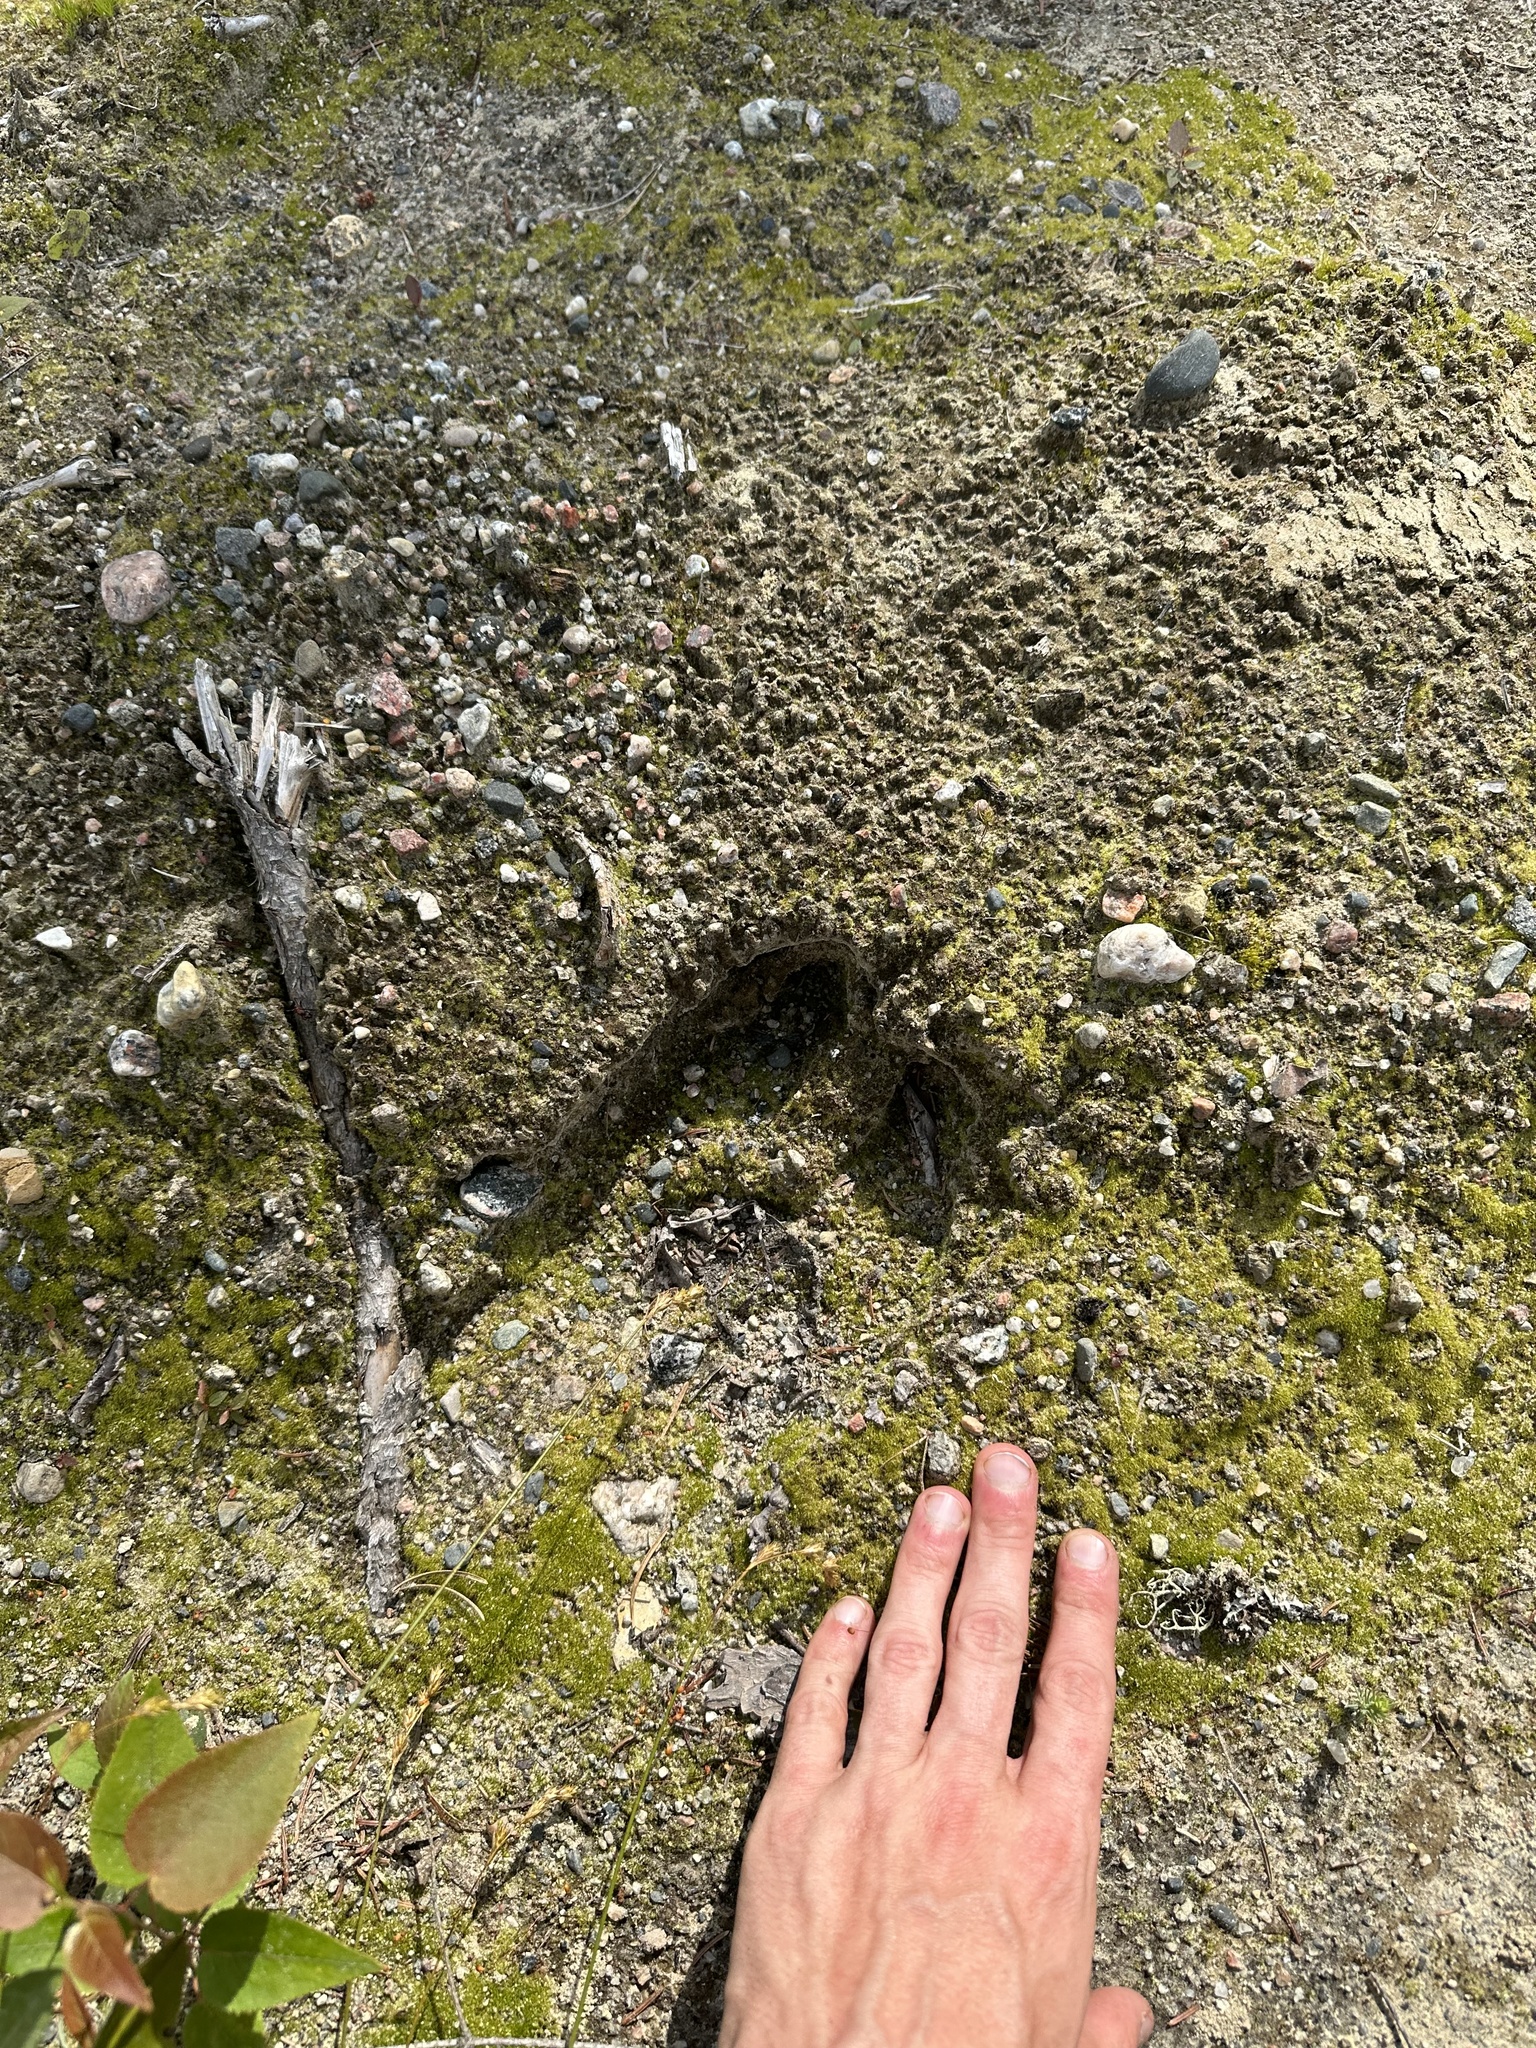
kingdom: Animalia
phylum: Chordata
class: Mammalia
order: Artiodactyla
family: Cervidae
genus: Alces
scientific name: Alces alces
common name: Moose
